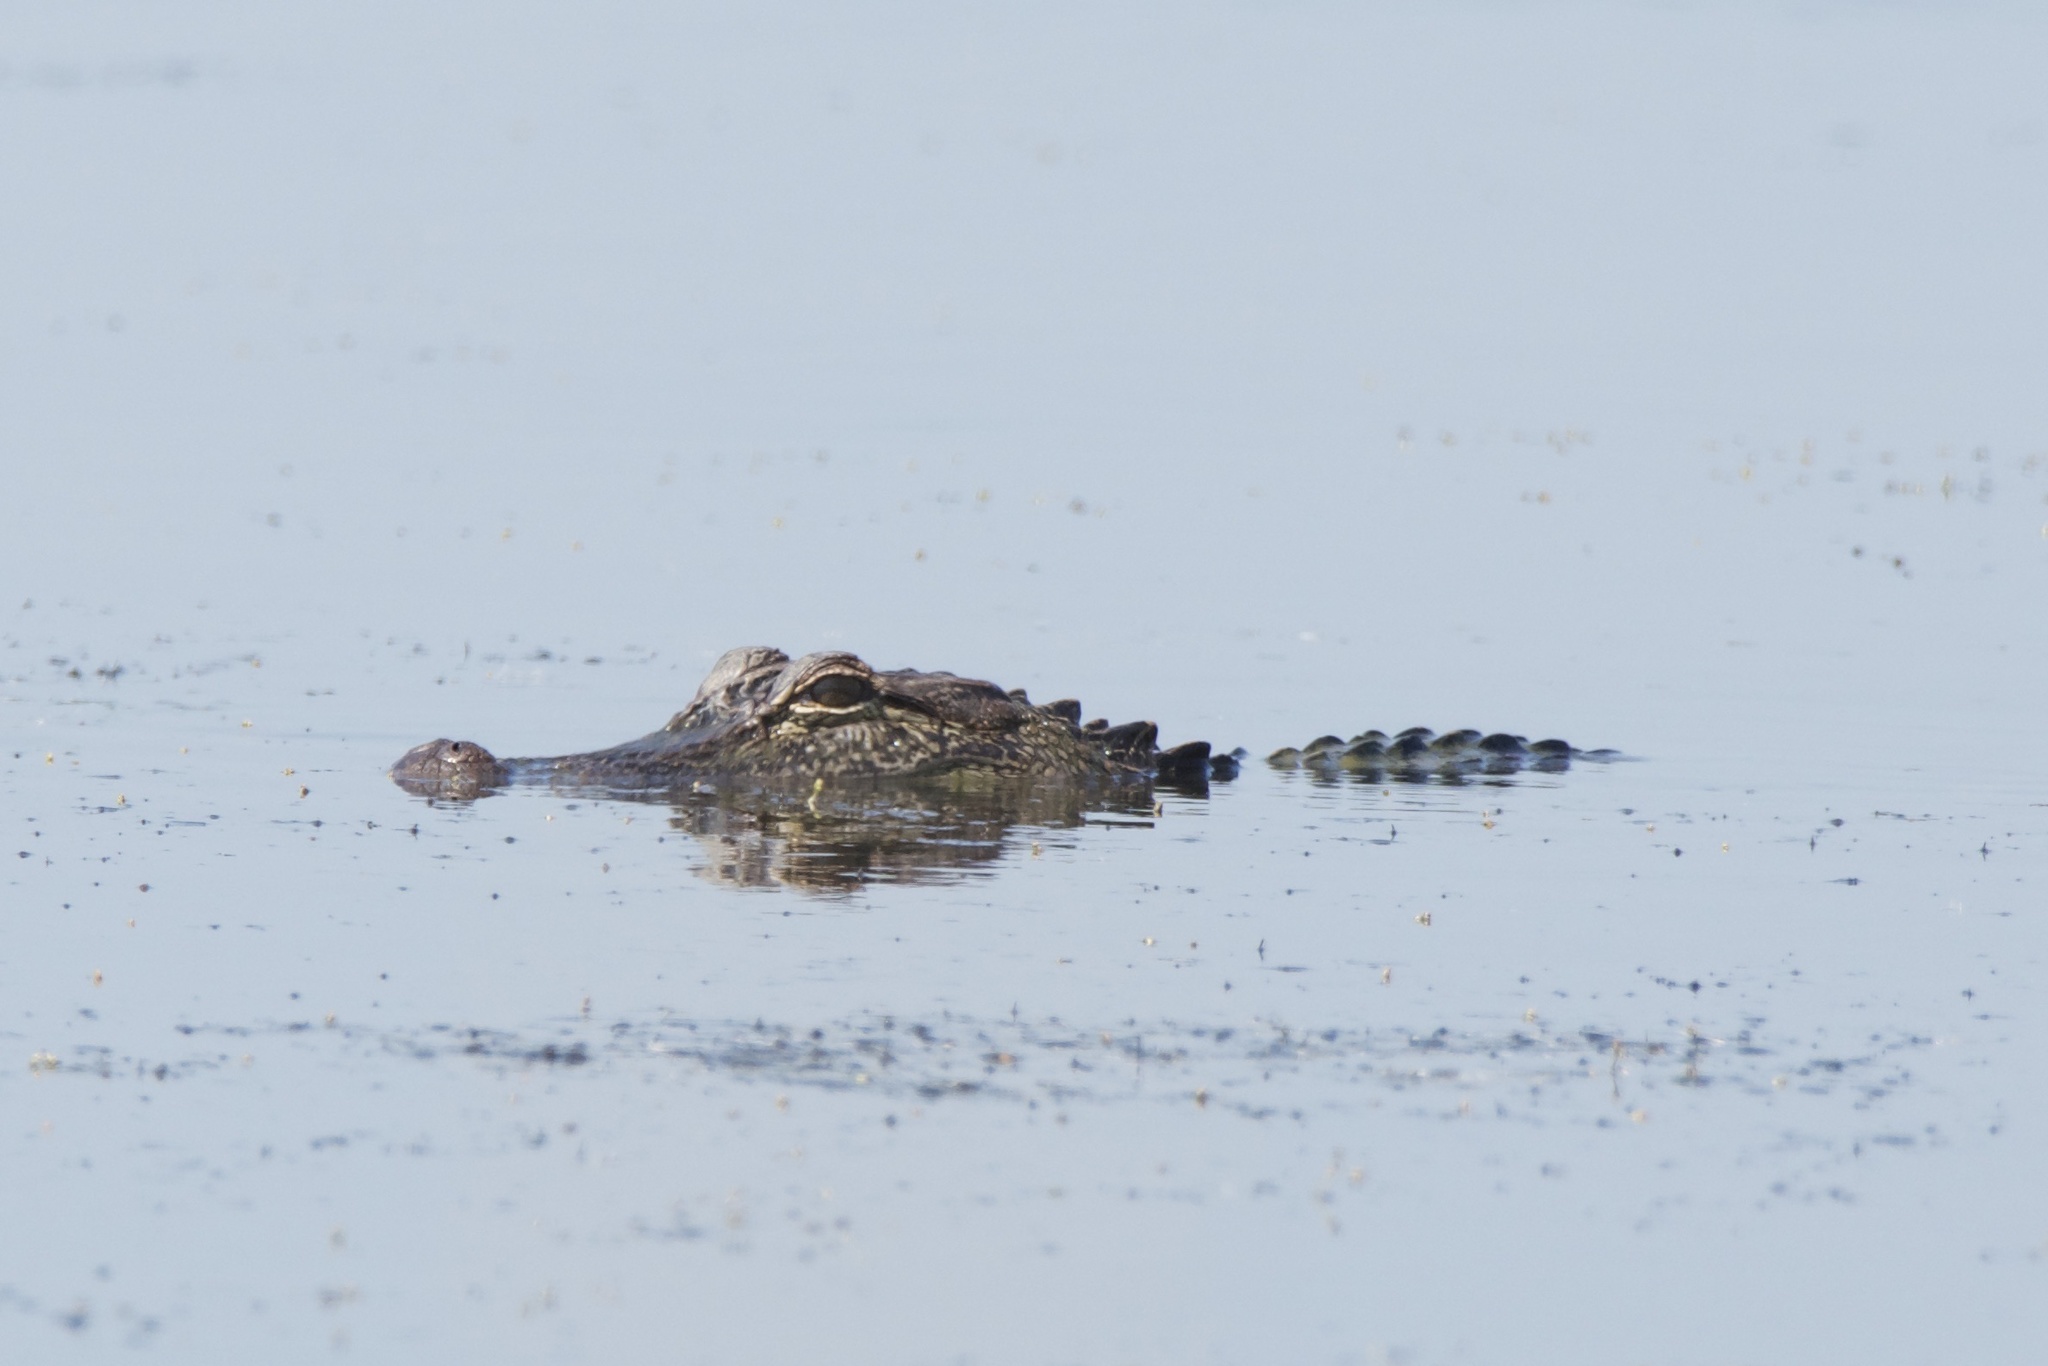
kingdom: Animalia
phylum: Chordata
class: Crocodylia
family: Alligatoridae
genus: Alligator
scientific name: Alligator mississippiensis
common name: American alligator
